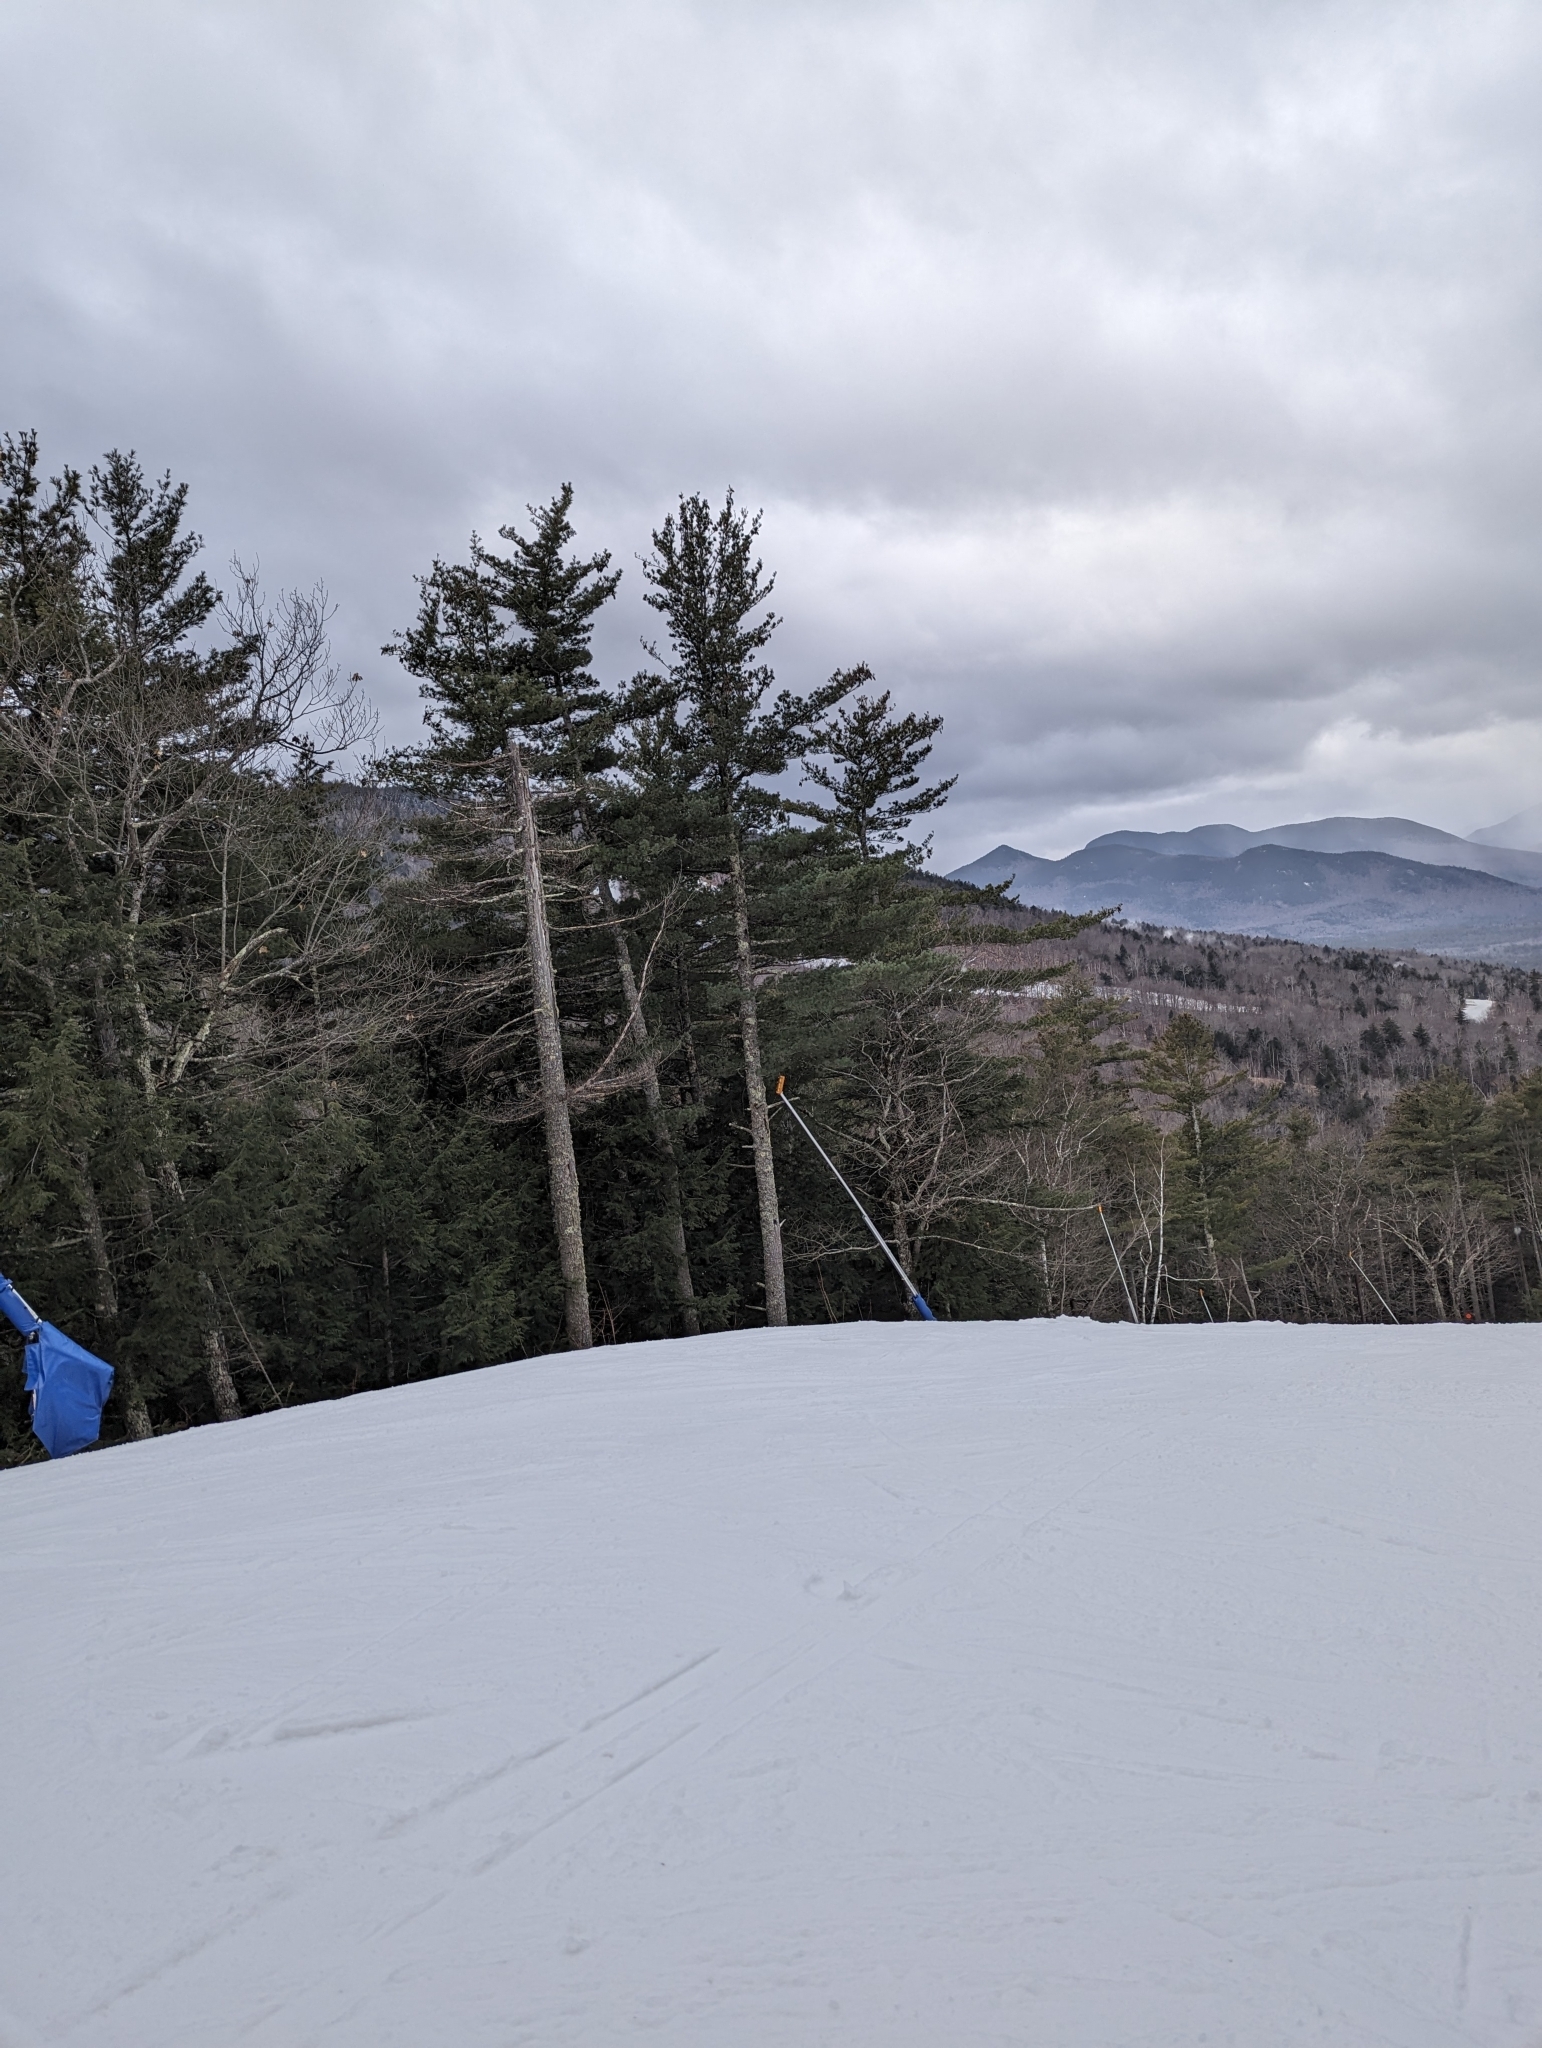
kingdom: Plantae
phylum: Tracheophyta
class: Pinopsida
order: Pinales
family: Pinaceae
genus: Pinus
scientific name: Pinus strobus
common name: Weymouth pine
